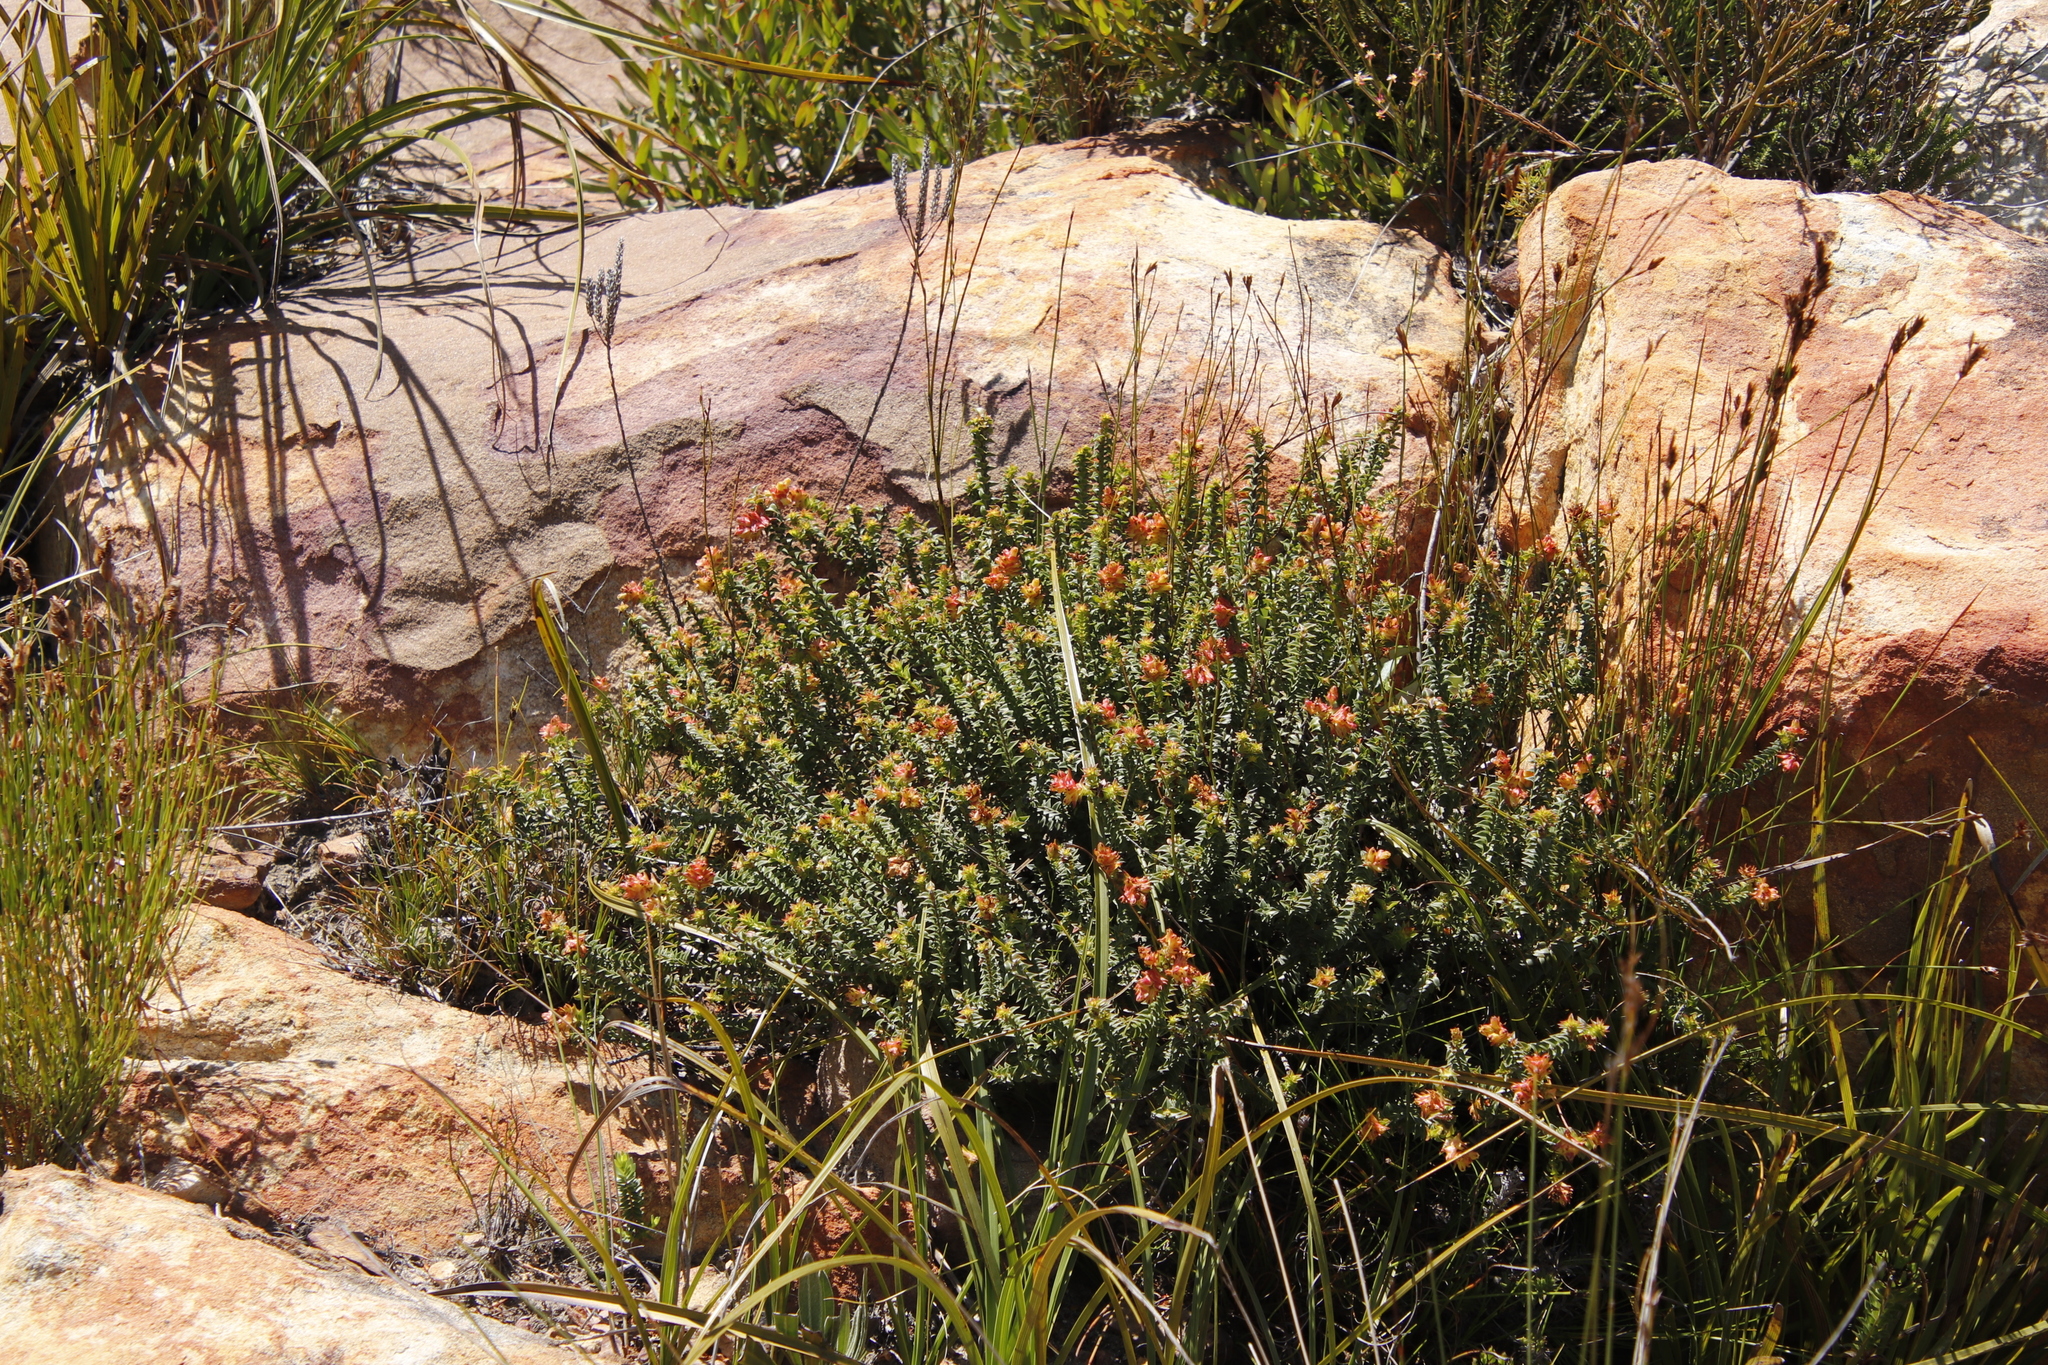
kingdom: Plantae
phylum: Tracheophyta
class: Magnoliopsida
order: Myrtales
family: Penaeaceae
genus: Penaea
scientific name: Penaea mucronata
